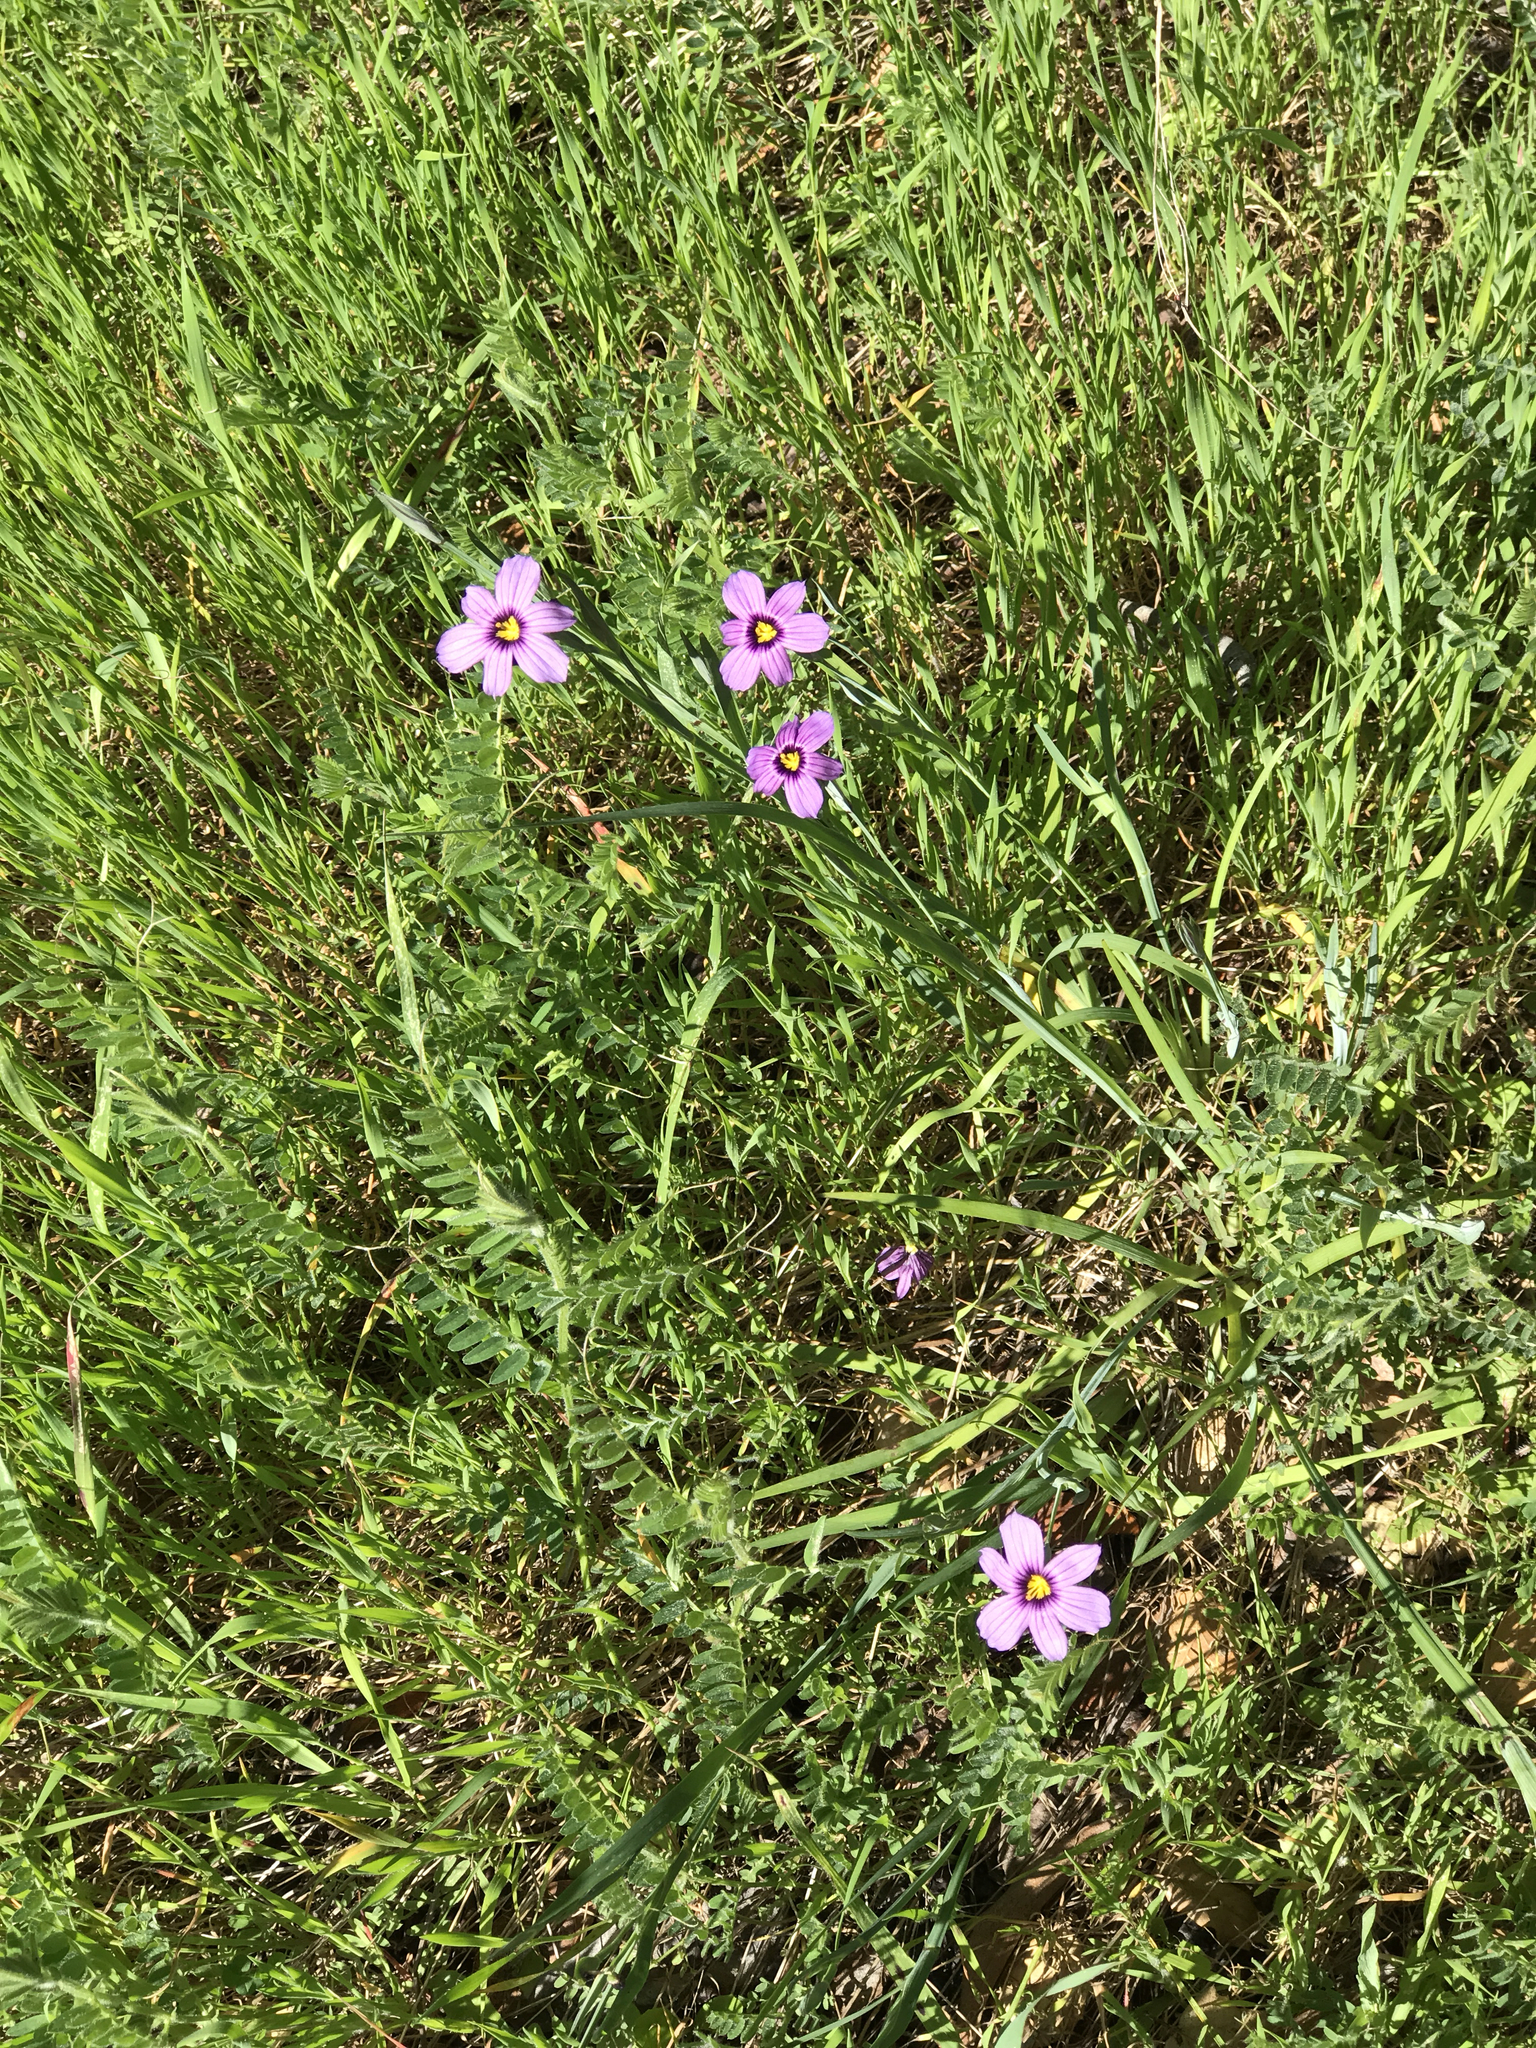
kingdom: Plantae
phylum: Tracheophyta
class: Liliopsida
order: Asparagales
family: Iridaceae
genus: Sisyrinchium
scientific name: Sisyrinchium bellum
